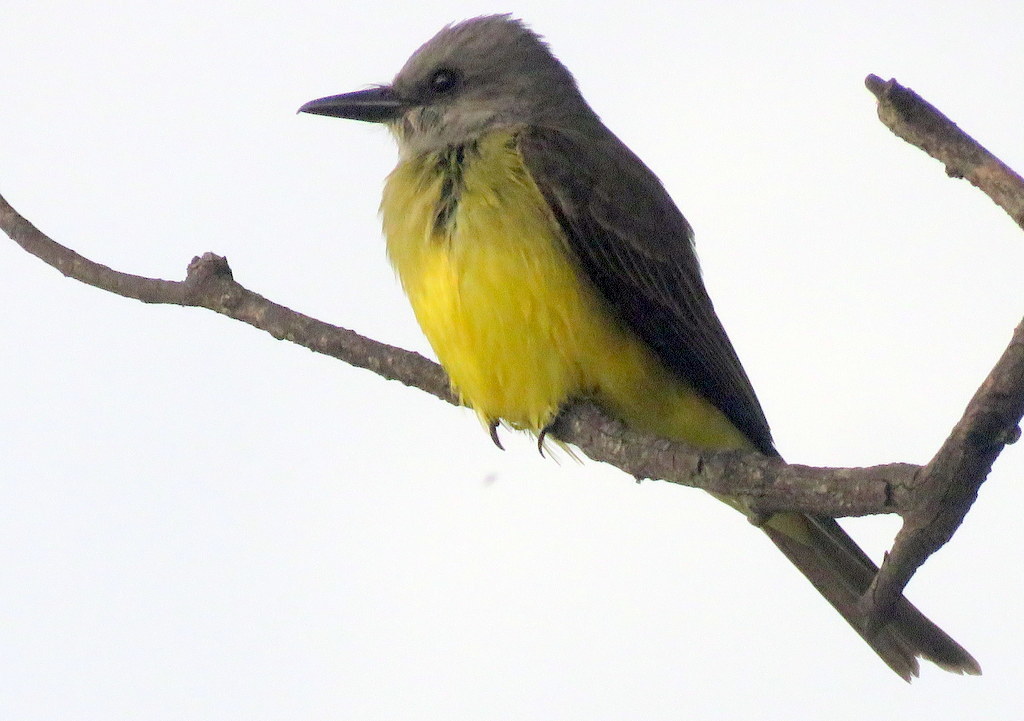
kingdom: Animalia
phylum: Chordata
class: Aves
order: Passeriformes
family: Tyrannidae
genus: Tyrannus
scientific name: Tyrannus melancholicus
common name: Tropical kingbird
